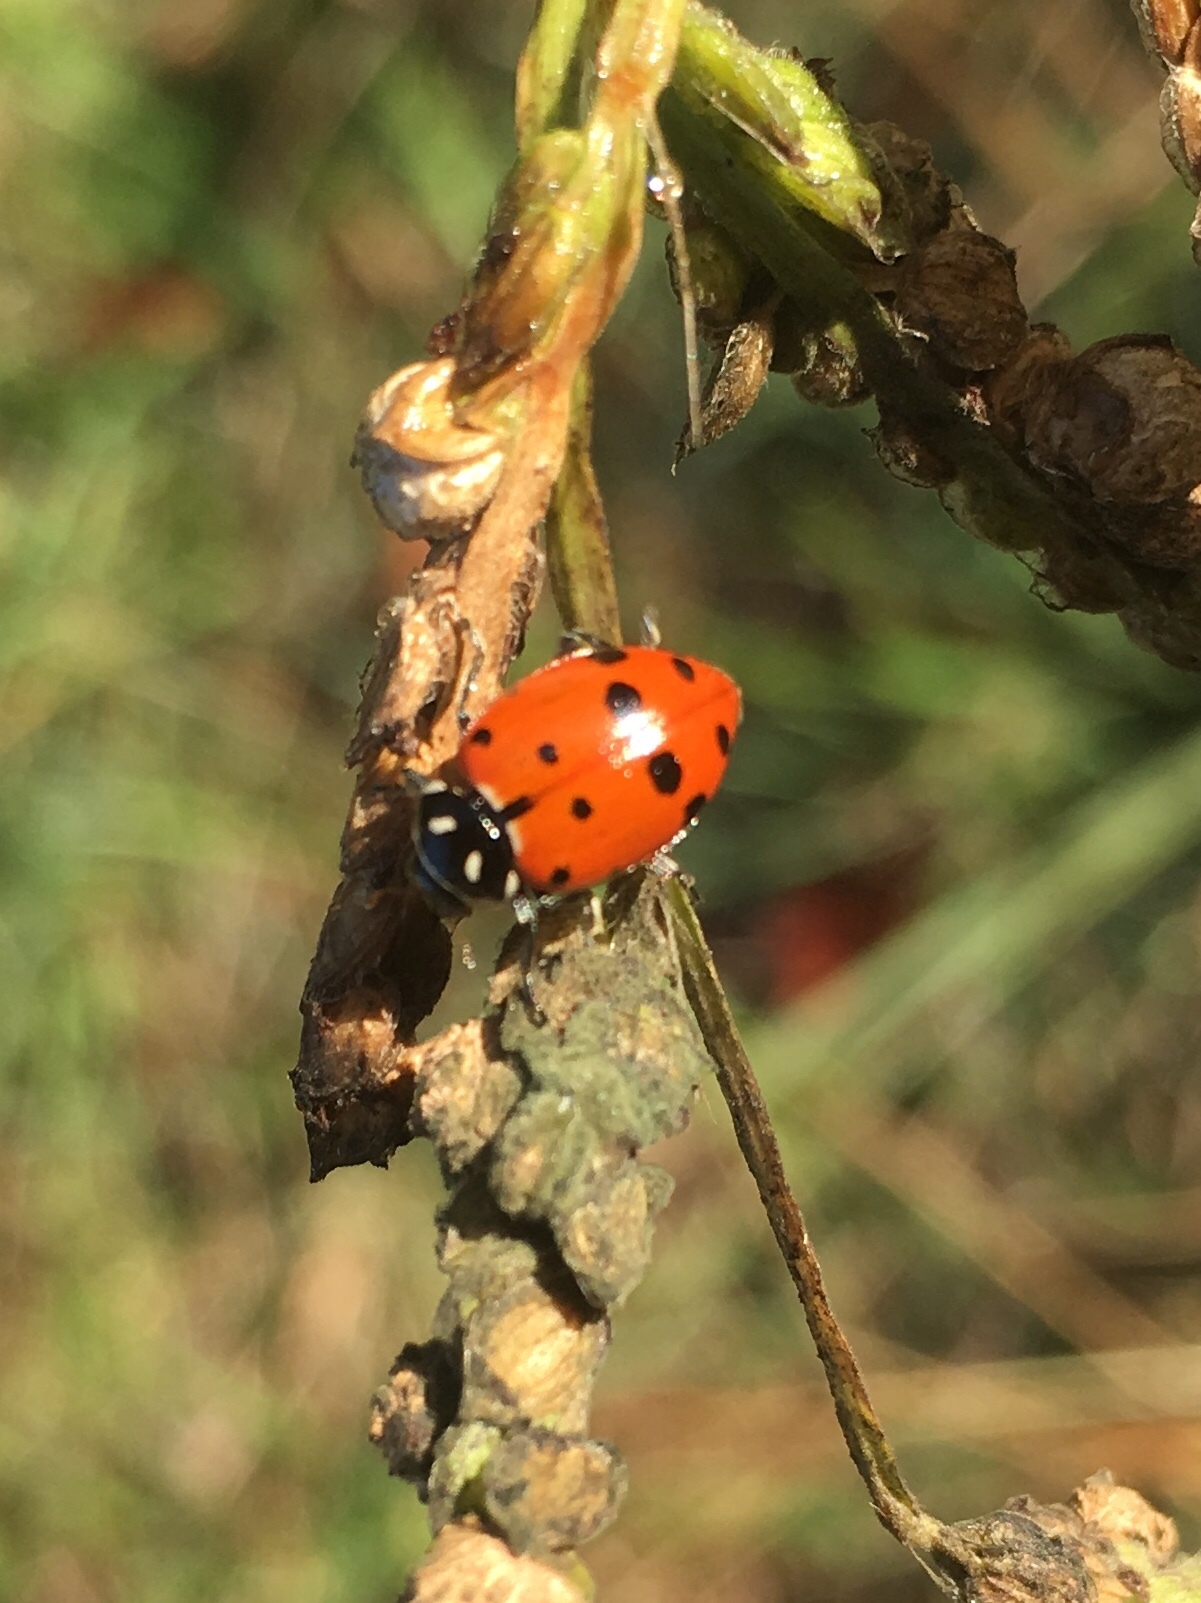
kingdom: Animalia
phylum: Arthropoda
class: Insecta
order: Coleoptera
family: Coccinellidae
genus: Hippodamia
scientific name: Hippodamia convergens
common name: Convergent lady beetle
